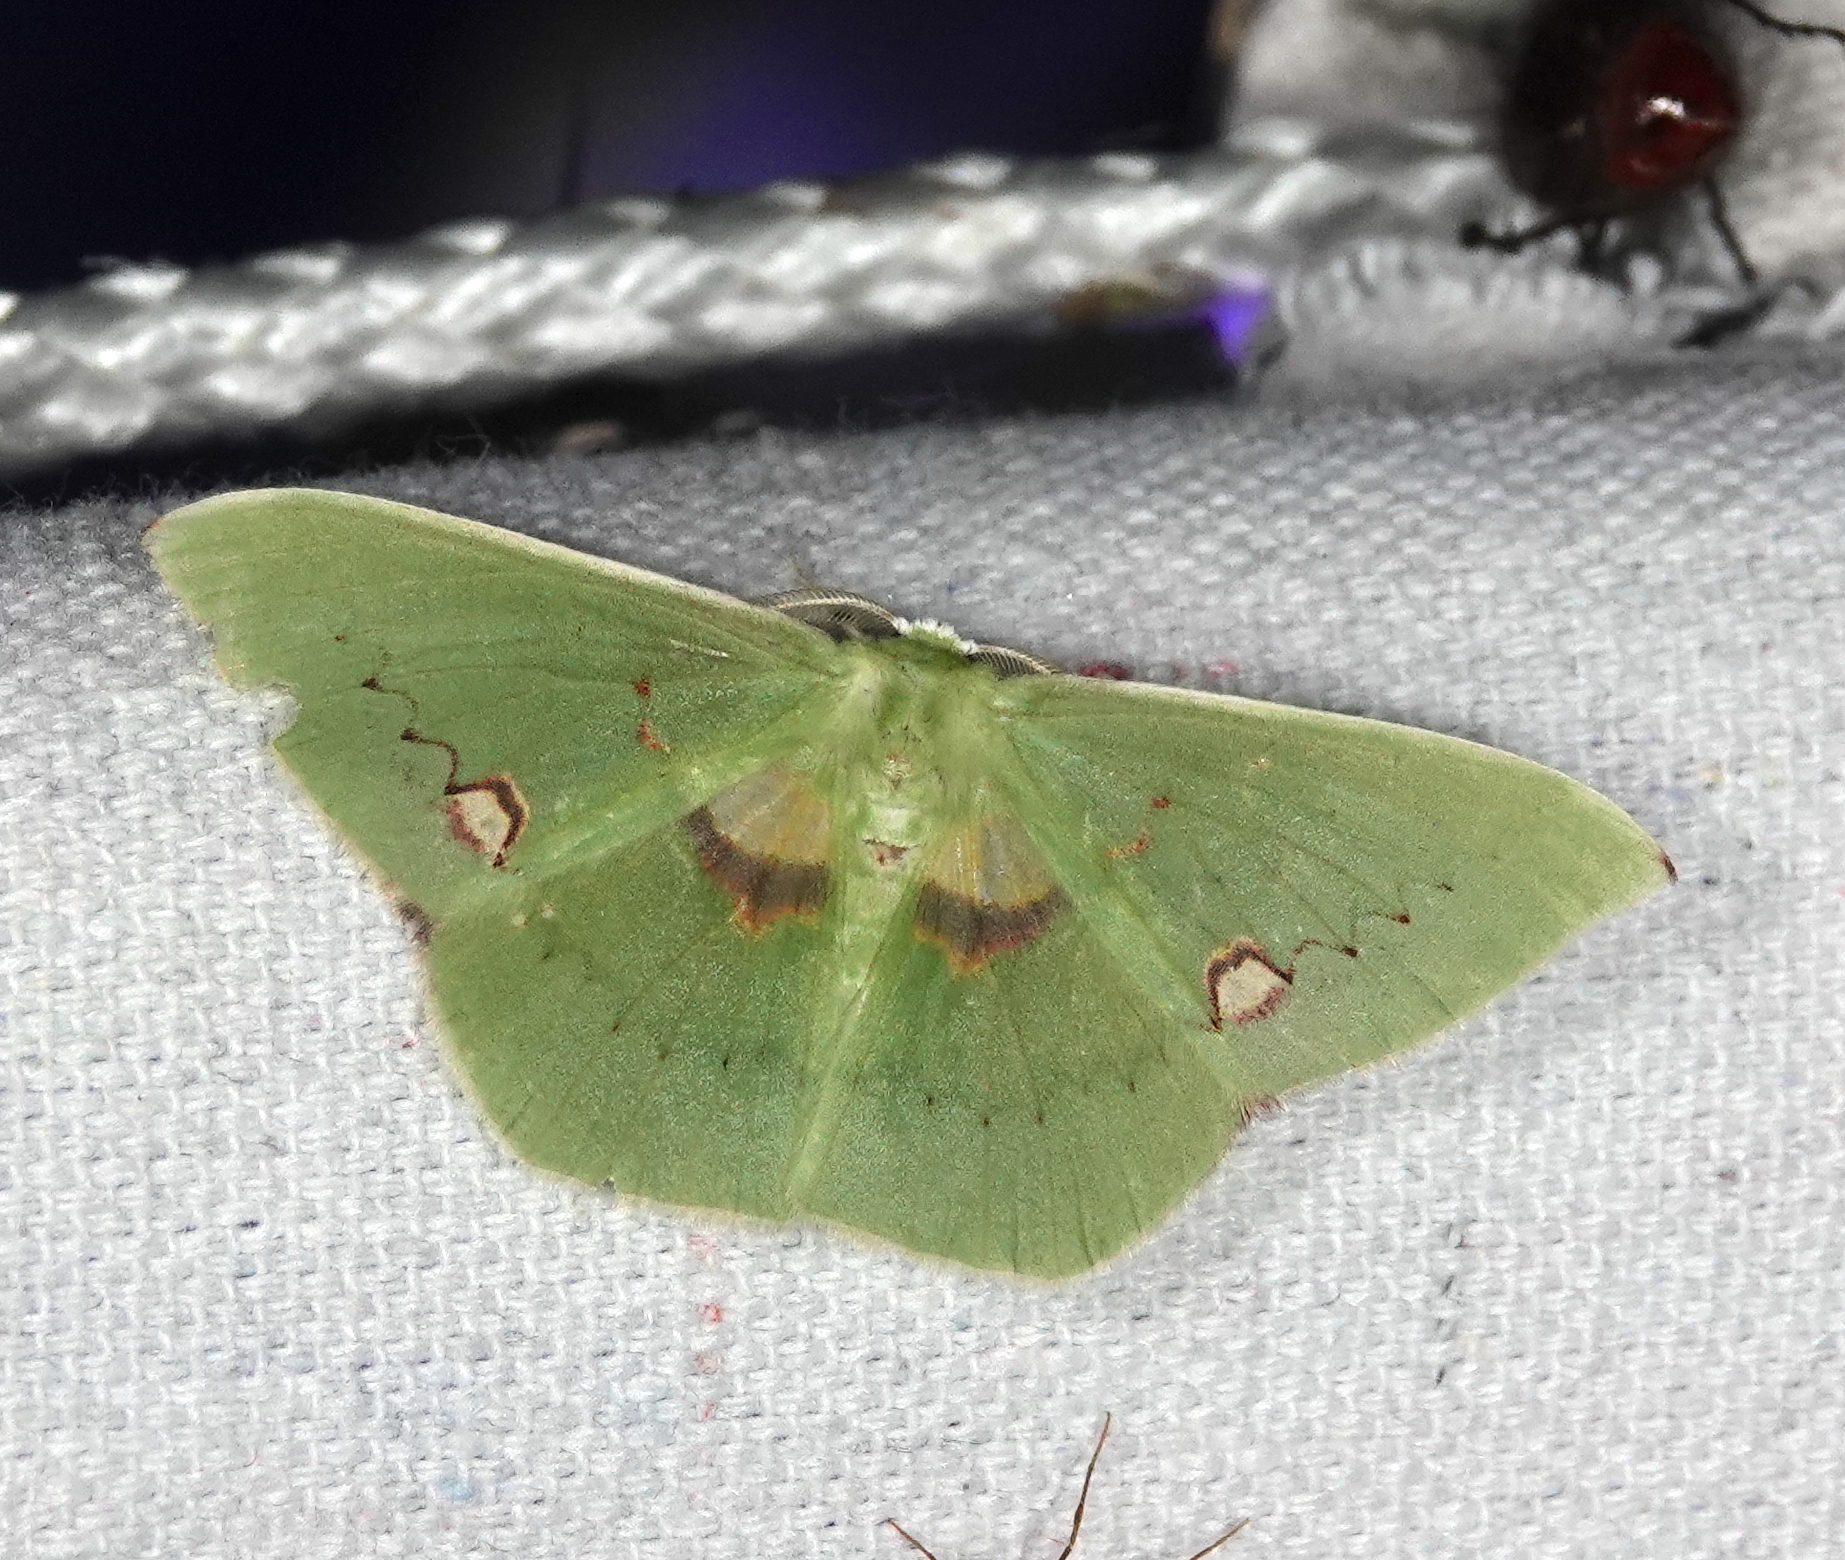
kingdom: Animalia
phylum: Arthropoda
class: Insecta
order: Lepidoptera
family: Geometridae
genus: Rhodochlora
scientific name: Rhodochlora endognoma
